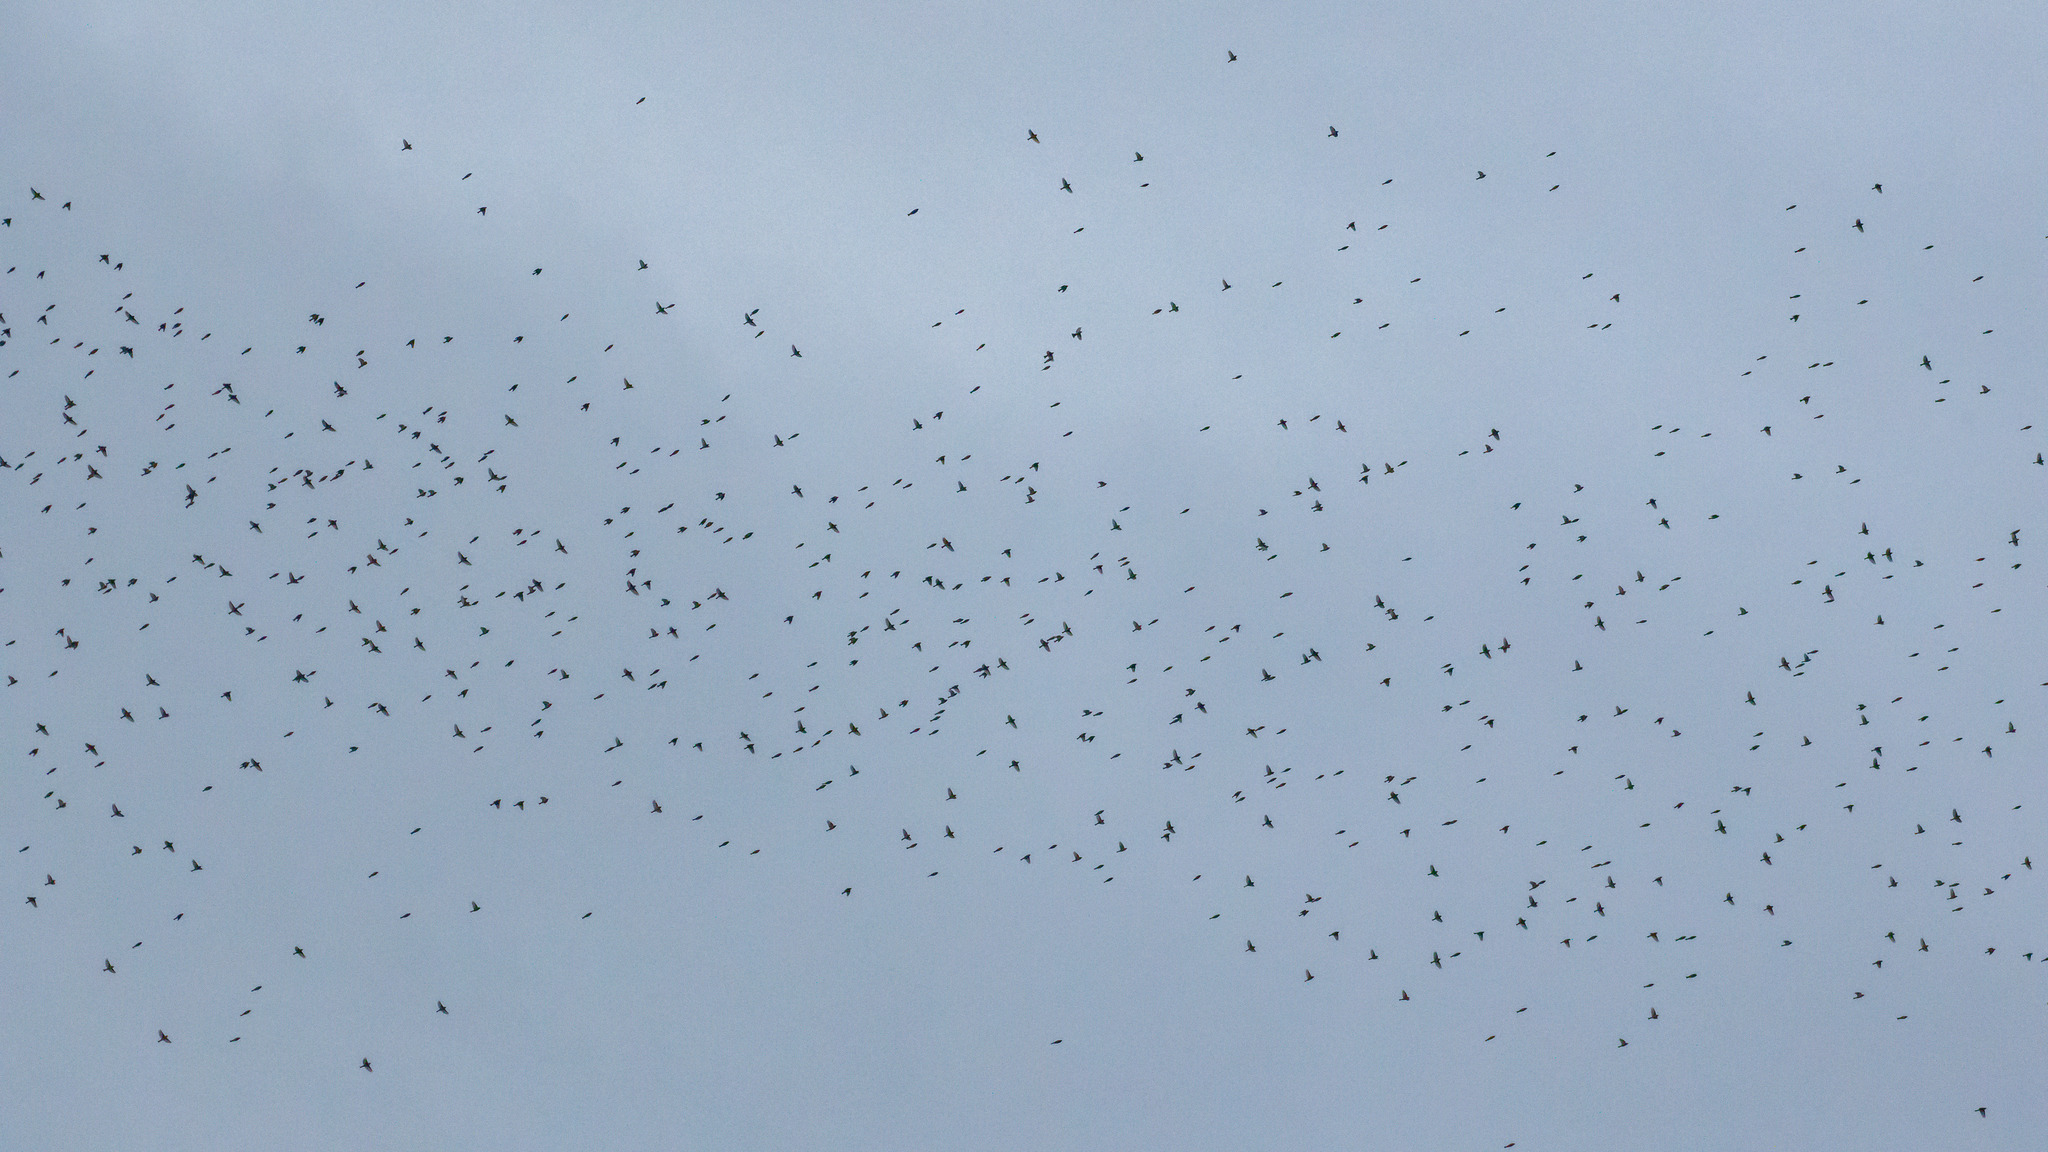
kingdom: Animalia
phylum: Chordata
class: Aves
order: Passeriformes
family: Fringillidae
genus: Fringilla
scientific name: Fringilla montifringilla
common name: Brambling
